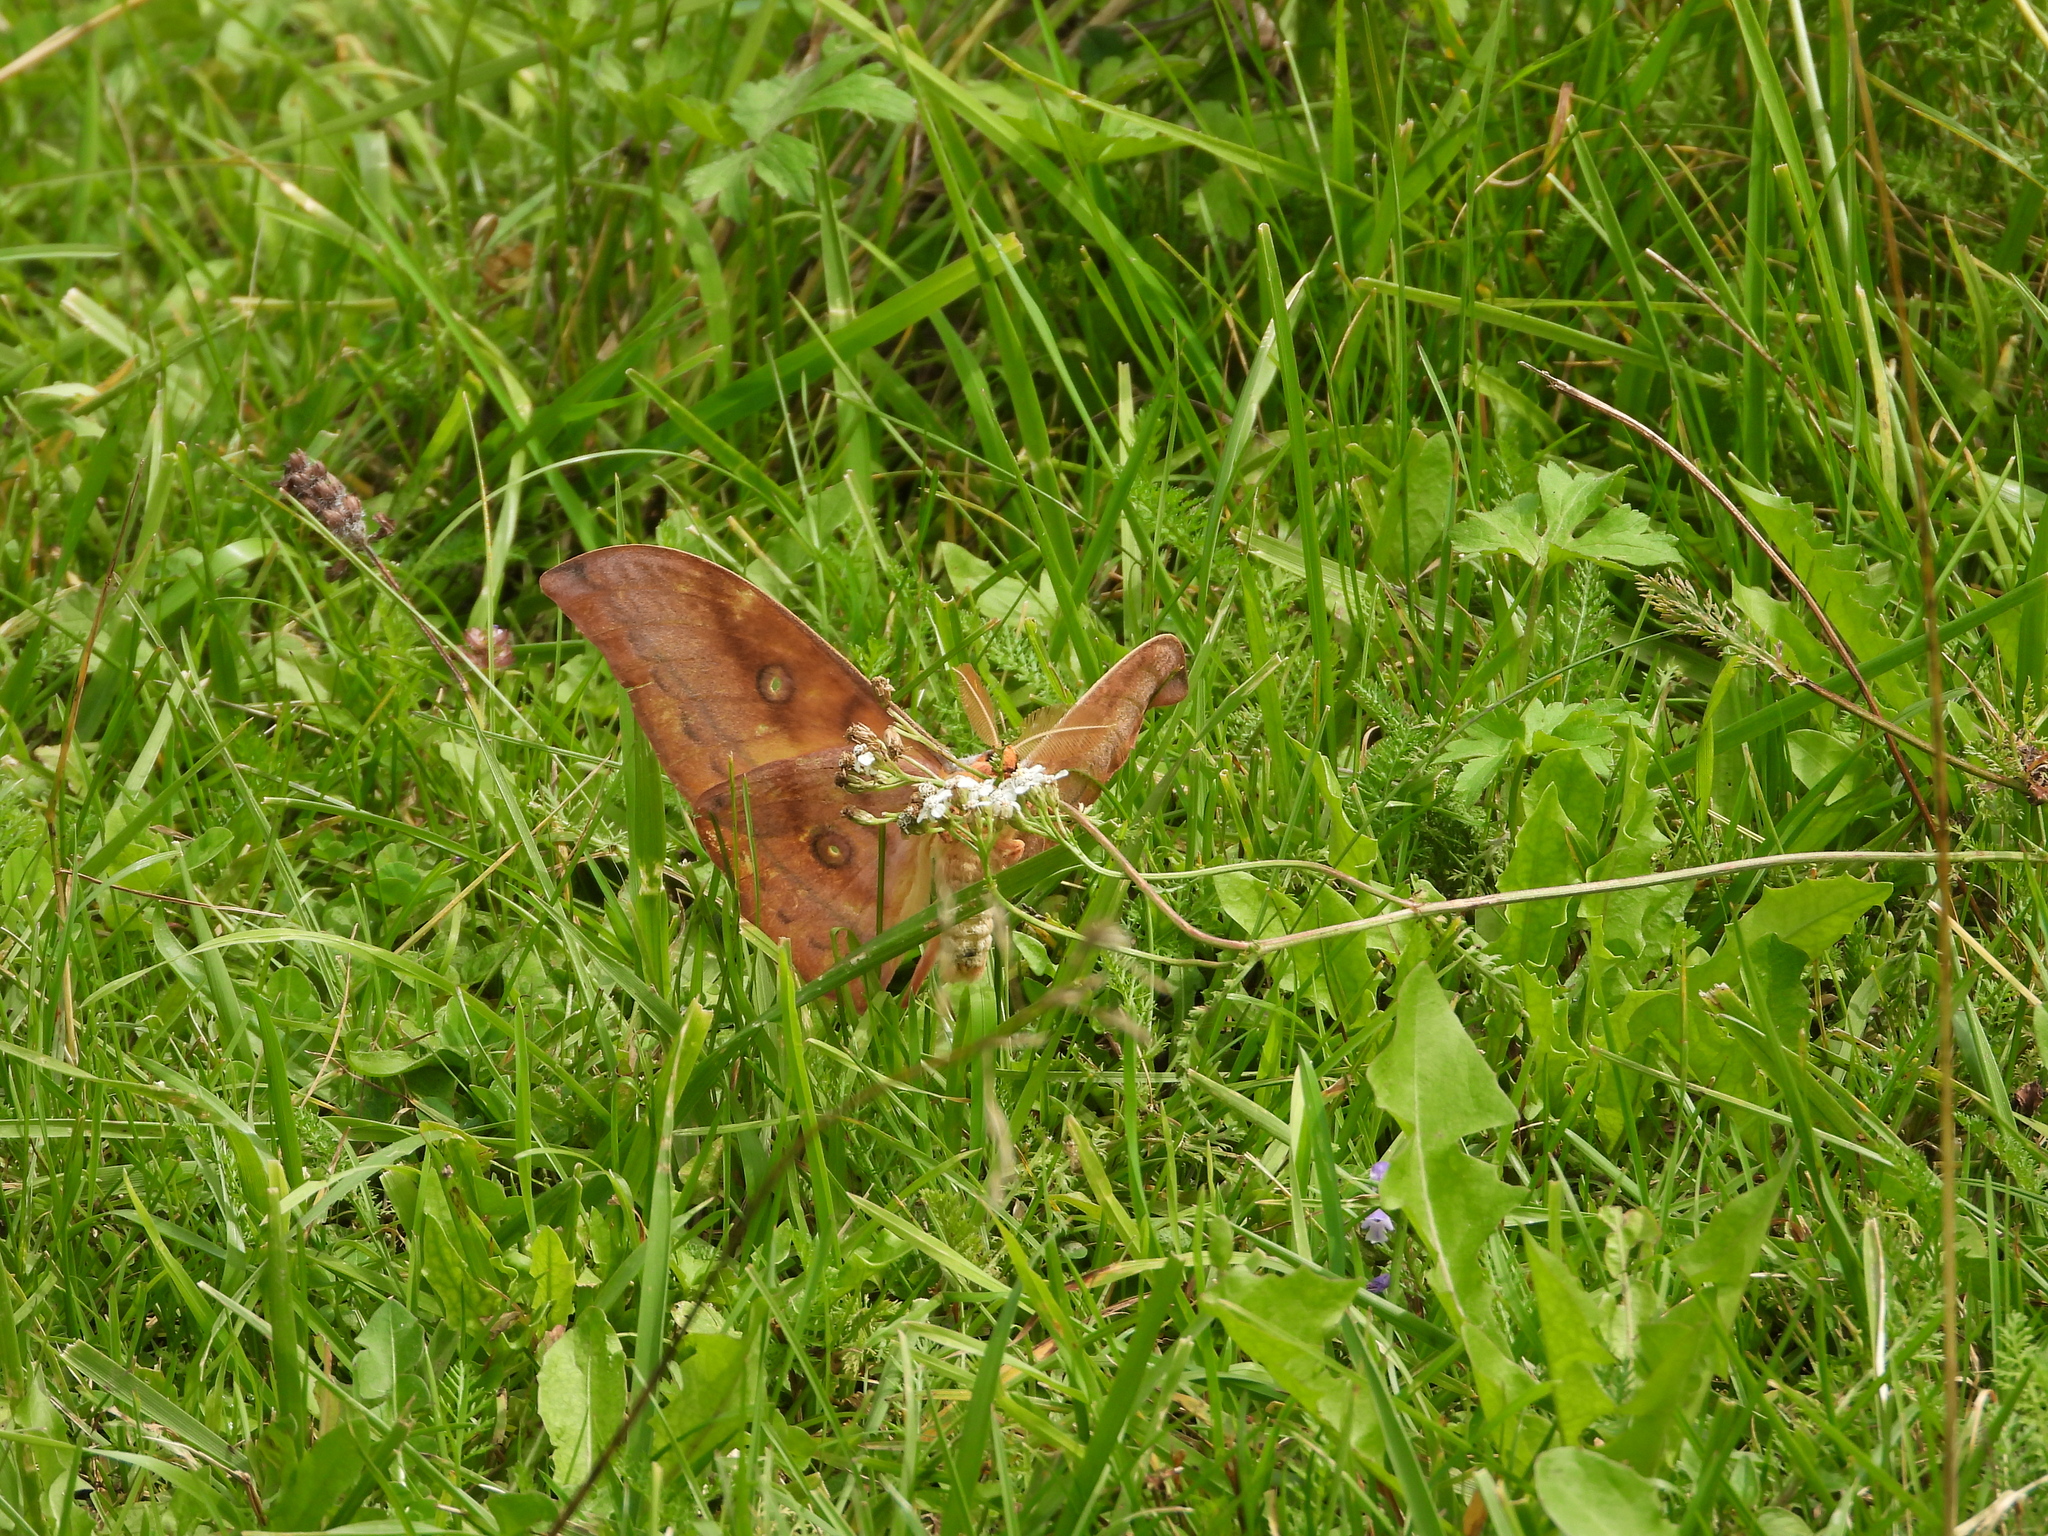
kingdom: Animalia
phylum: Arthropoda
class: Insecta
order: Lepidoptera
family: Saturniidae
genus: Antheraea
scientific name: Antheraea yamamai
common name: Japanese oak silk moth
